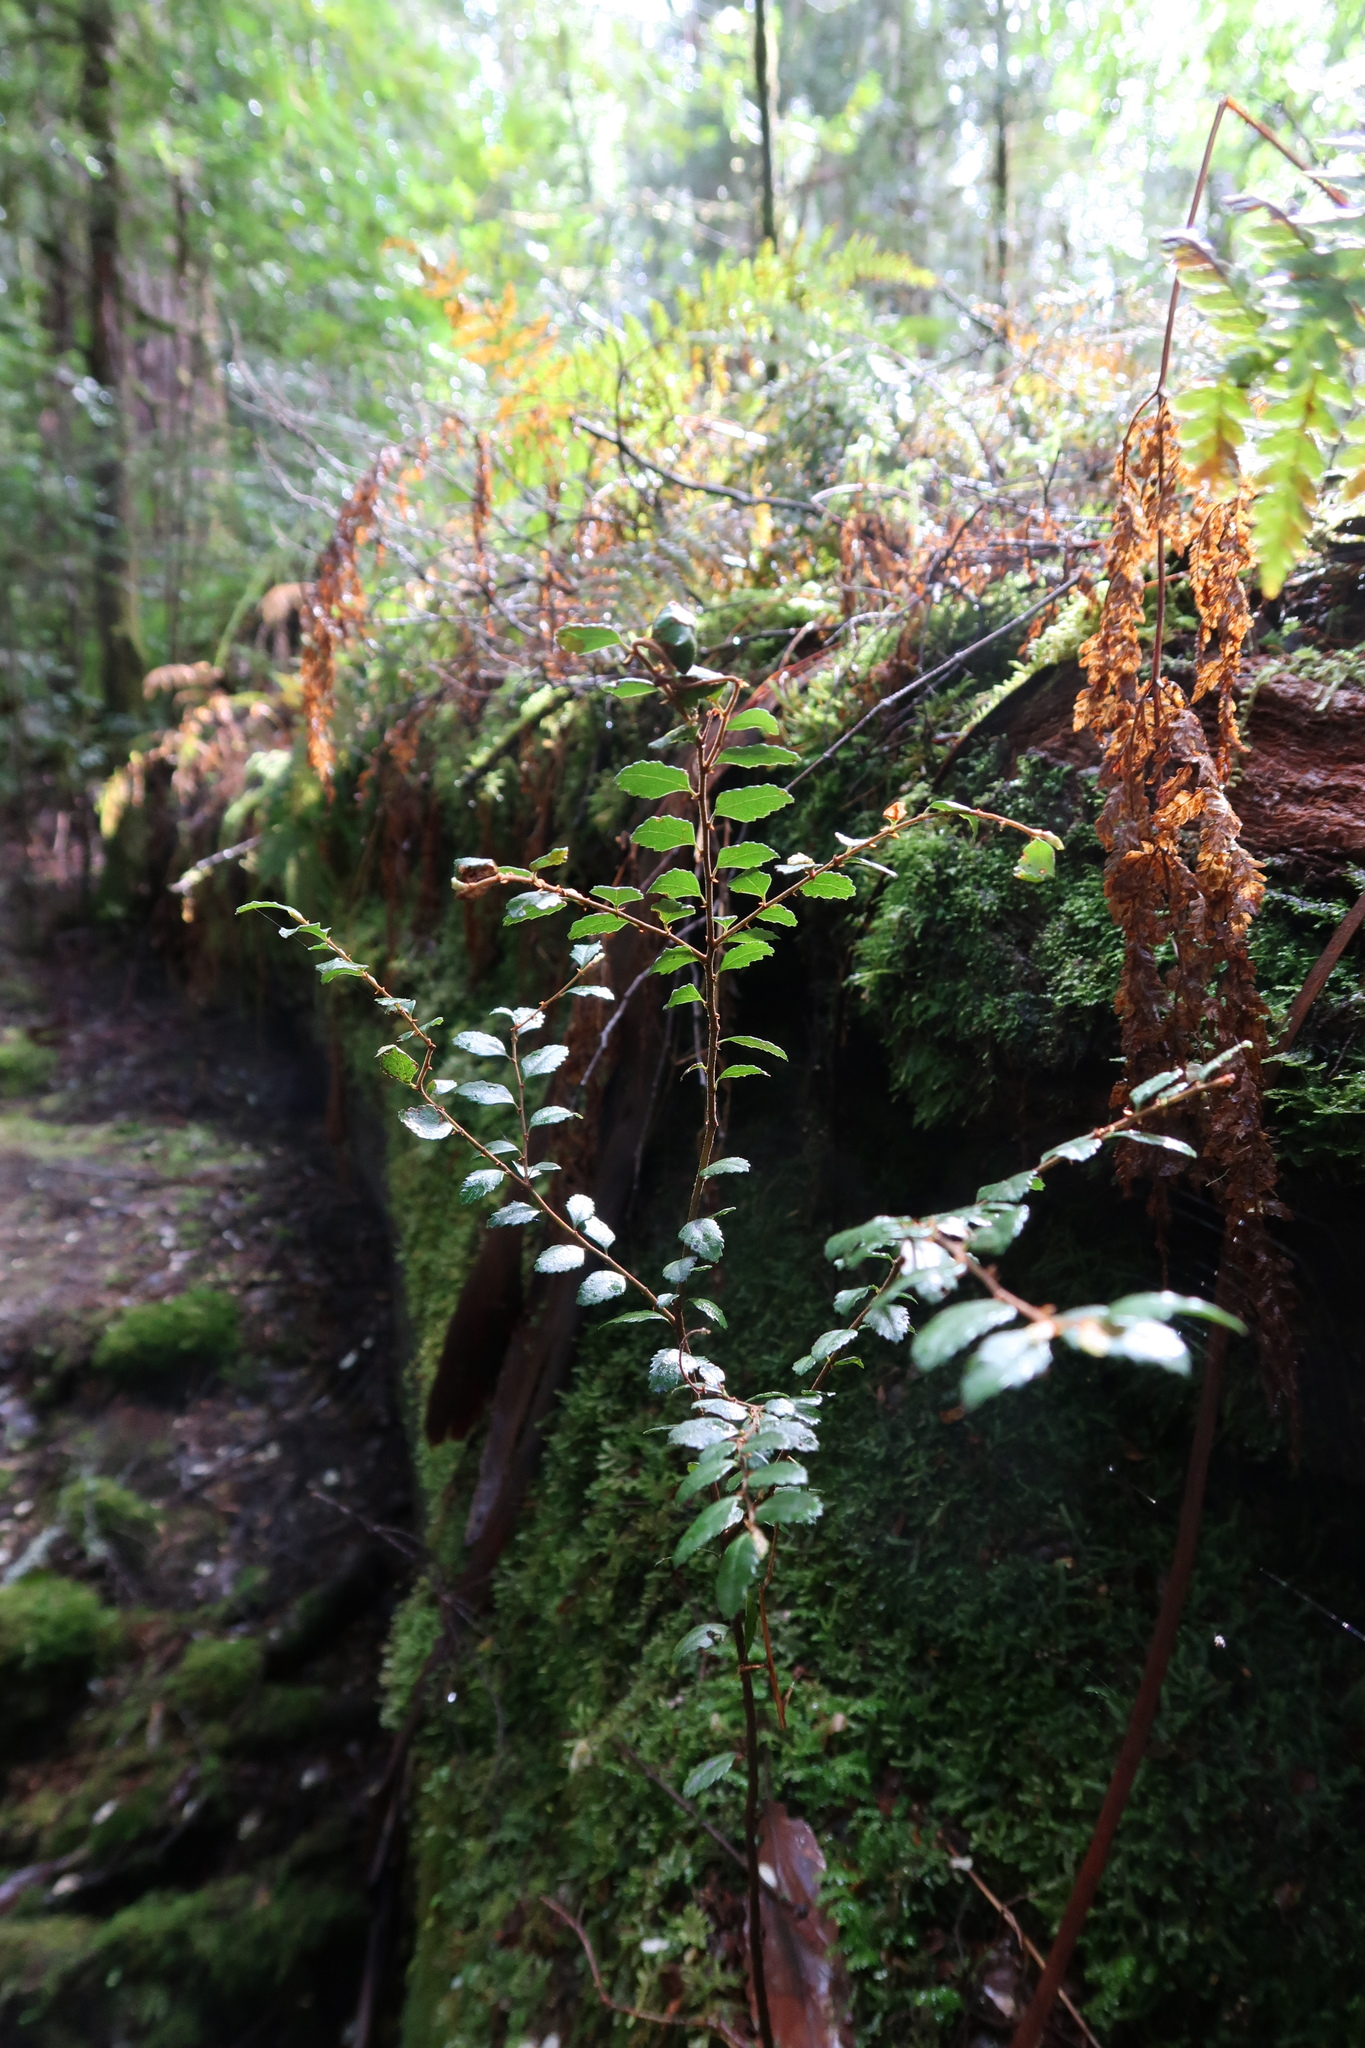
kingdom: Plantae
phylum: Tracheophyta
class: Magnoliopsida
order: Fagales
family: Nothofagaceae
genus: Nothofagus
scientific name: Nothofagus cunninghamii
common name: Myrtle beech
